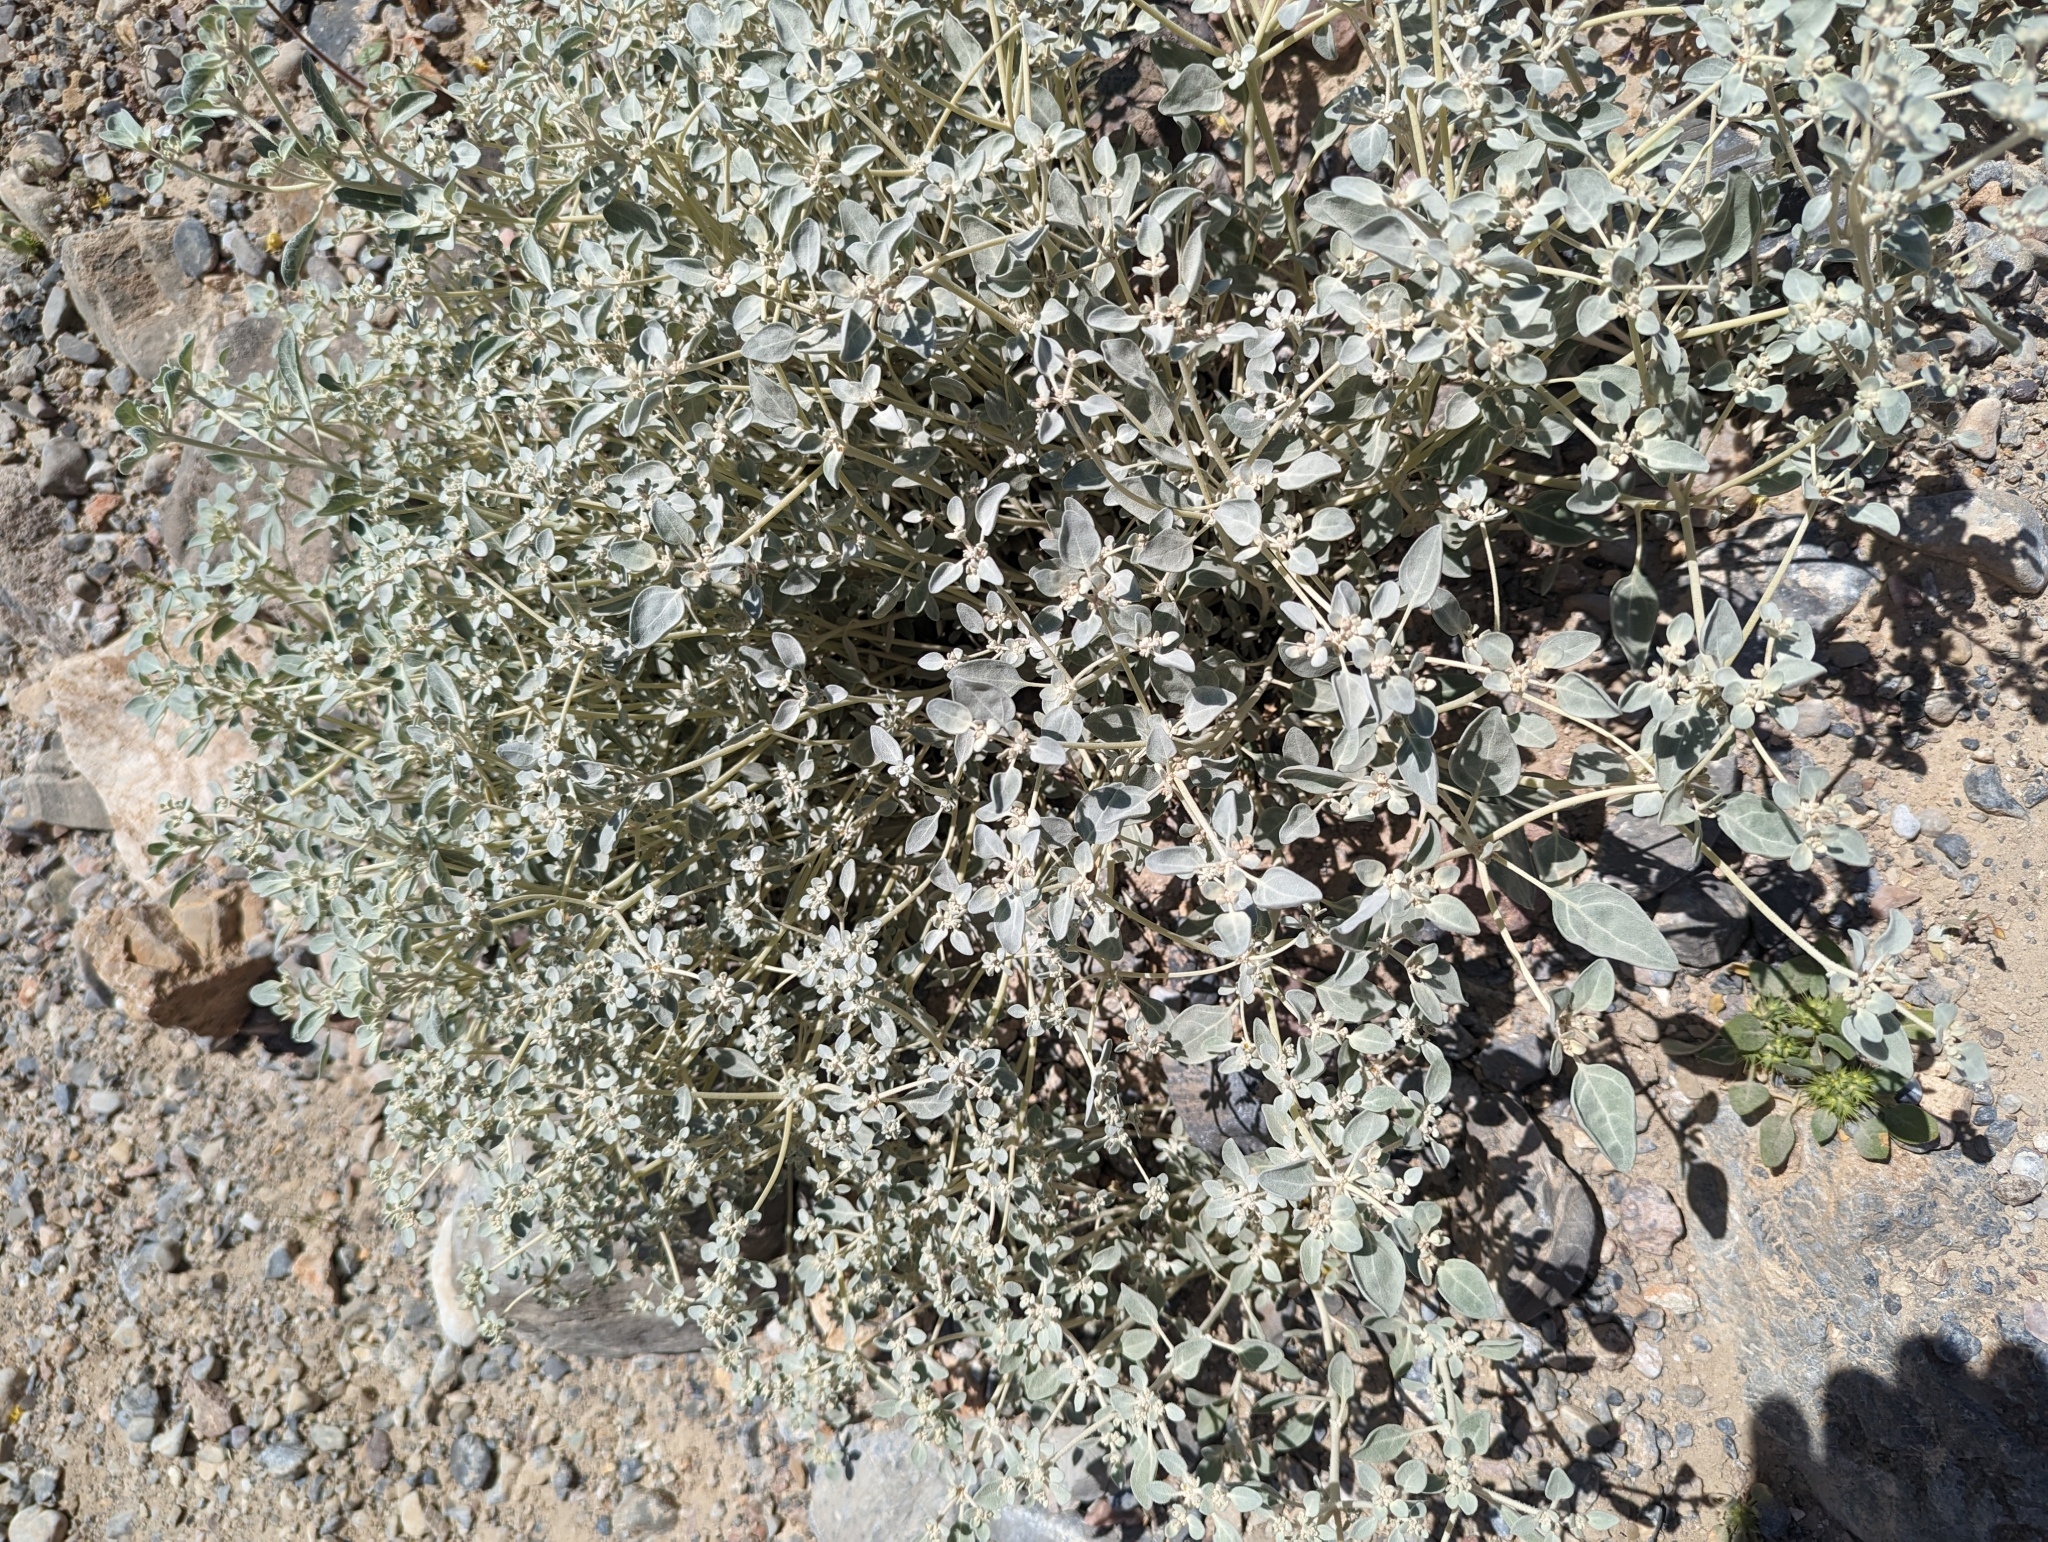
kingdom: Plantae
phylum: Tracheophyta
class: Magnoliopsida
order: Caryophyllales
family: Amaranthaceae
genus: Tidestromia
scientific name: Tidestromia suffruticosa
